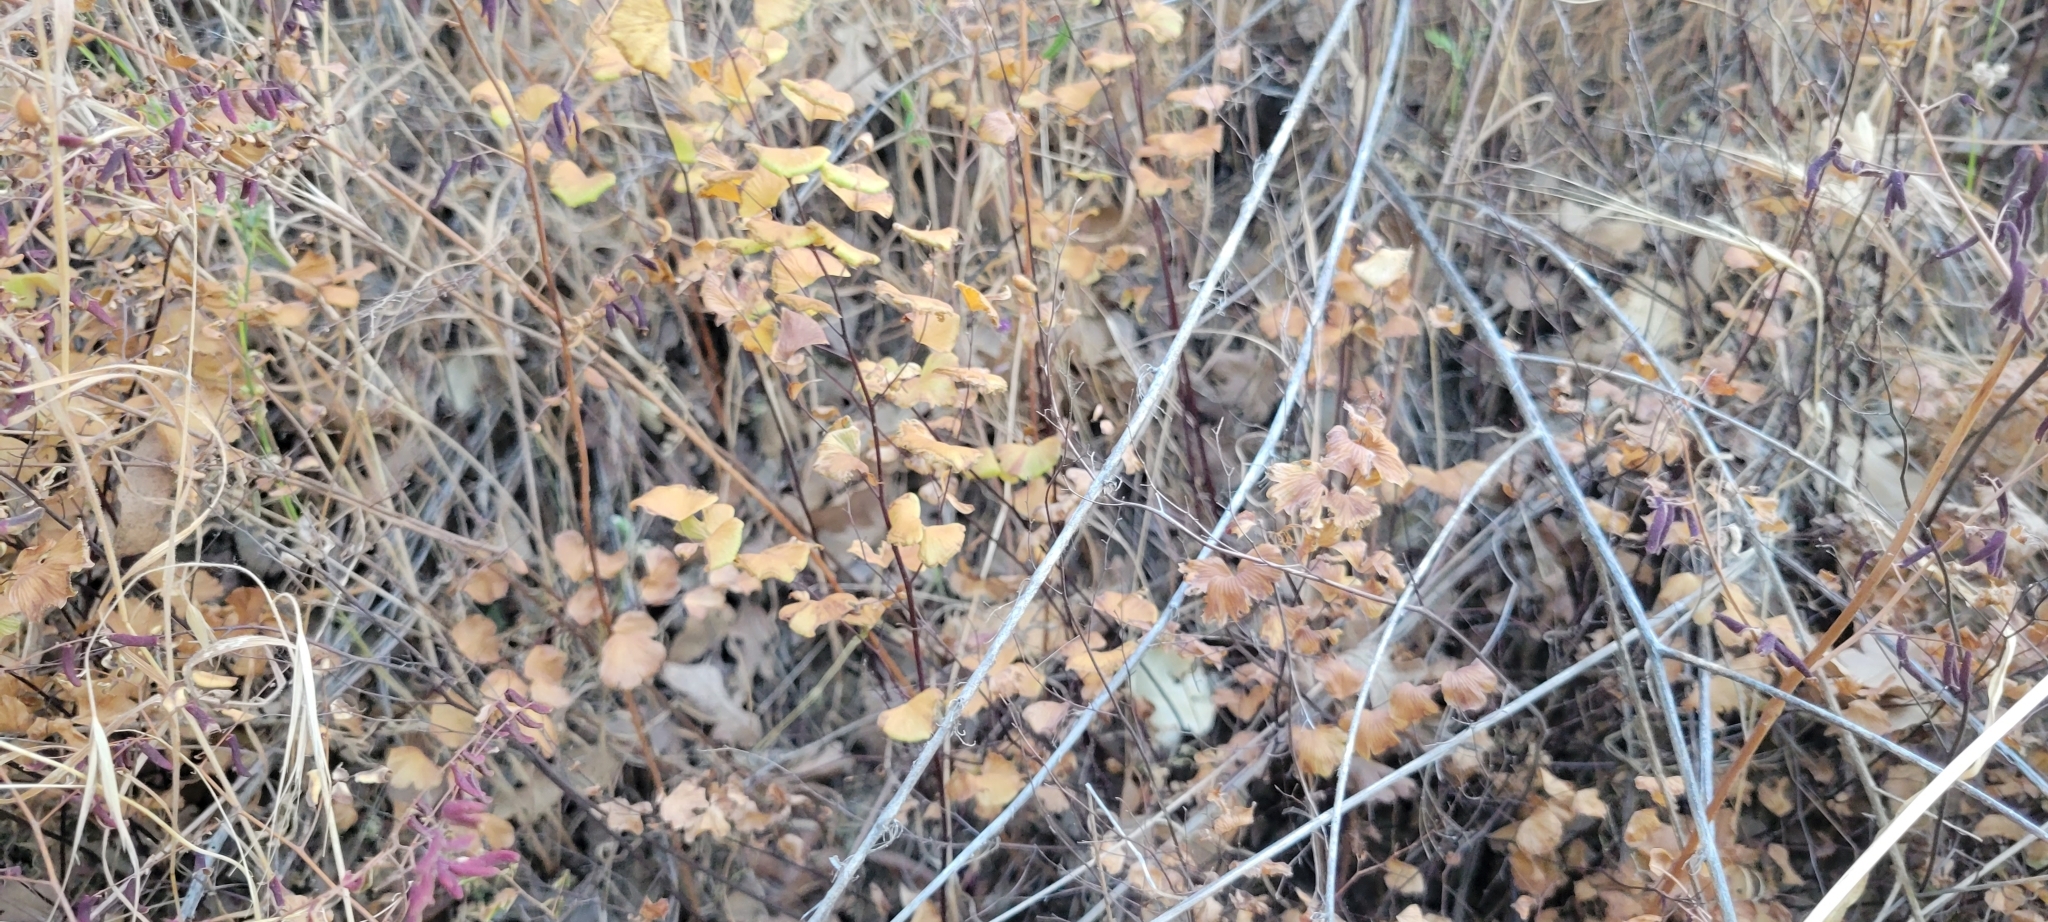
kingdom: Plantae
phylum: Tracheophyta
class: Polypodiopsida
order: Polypodiales
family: Pteridaceae
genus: Adiantum
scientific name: Adiantum jordanii
